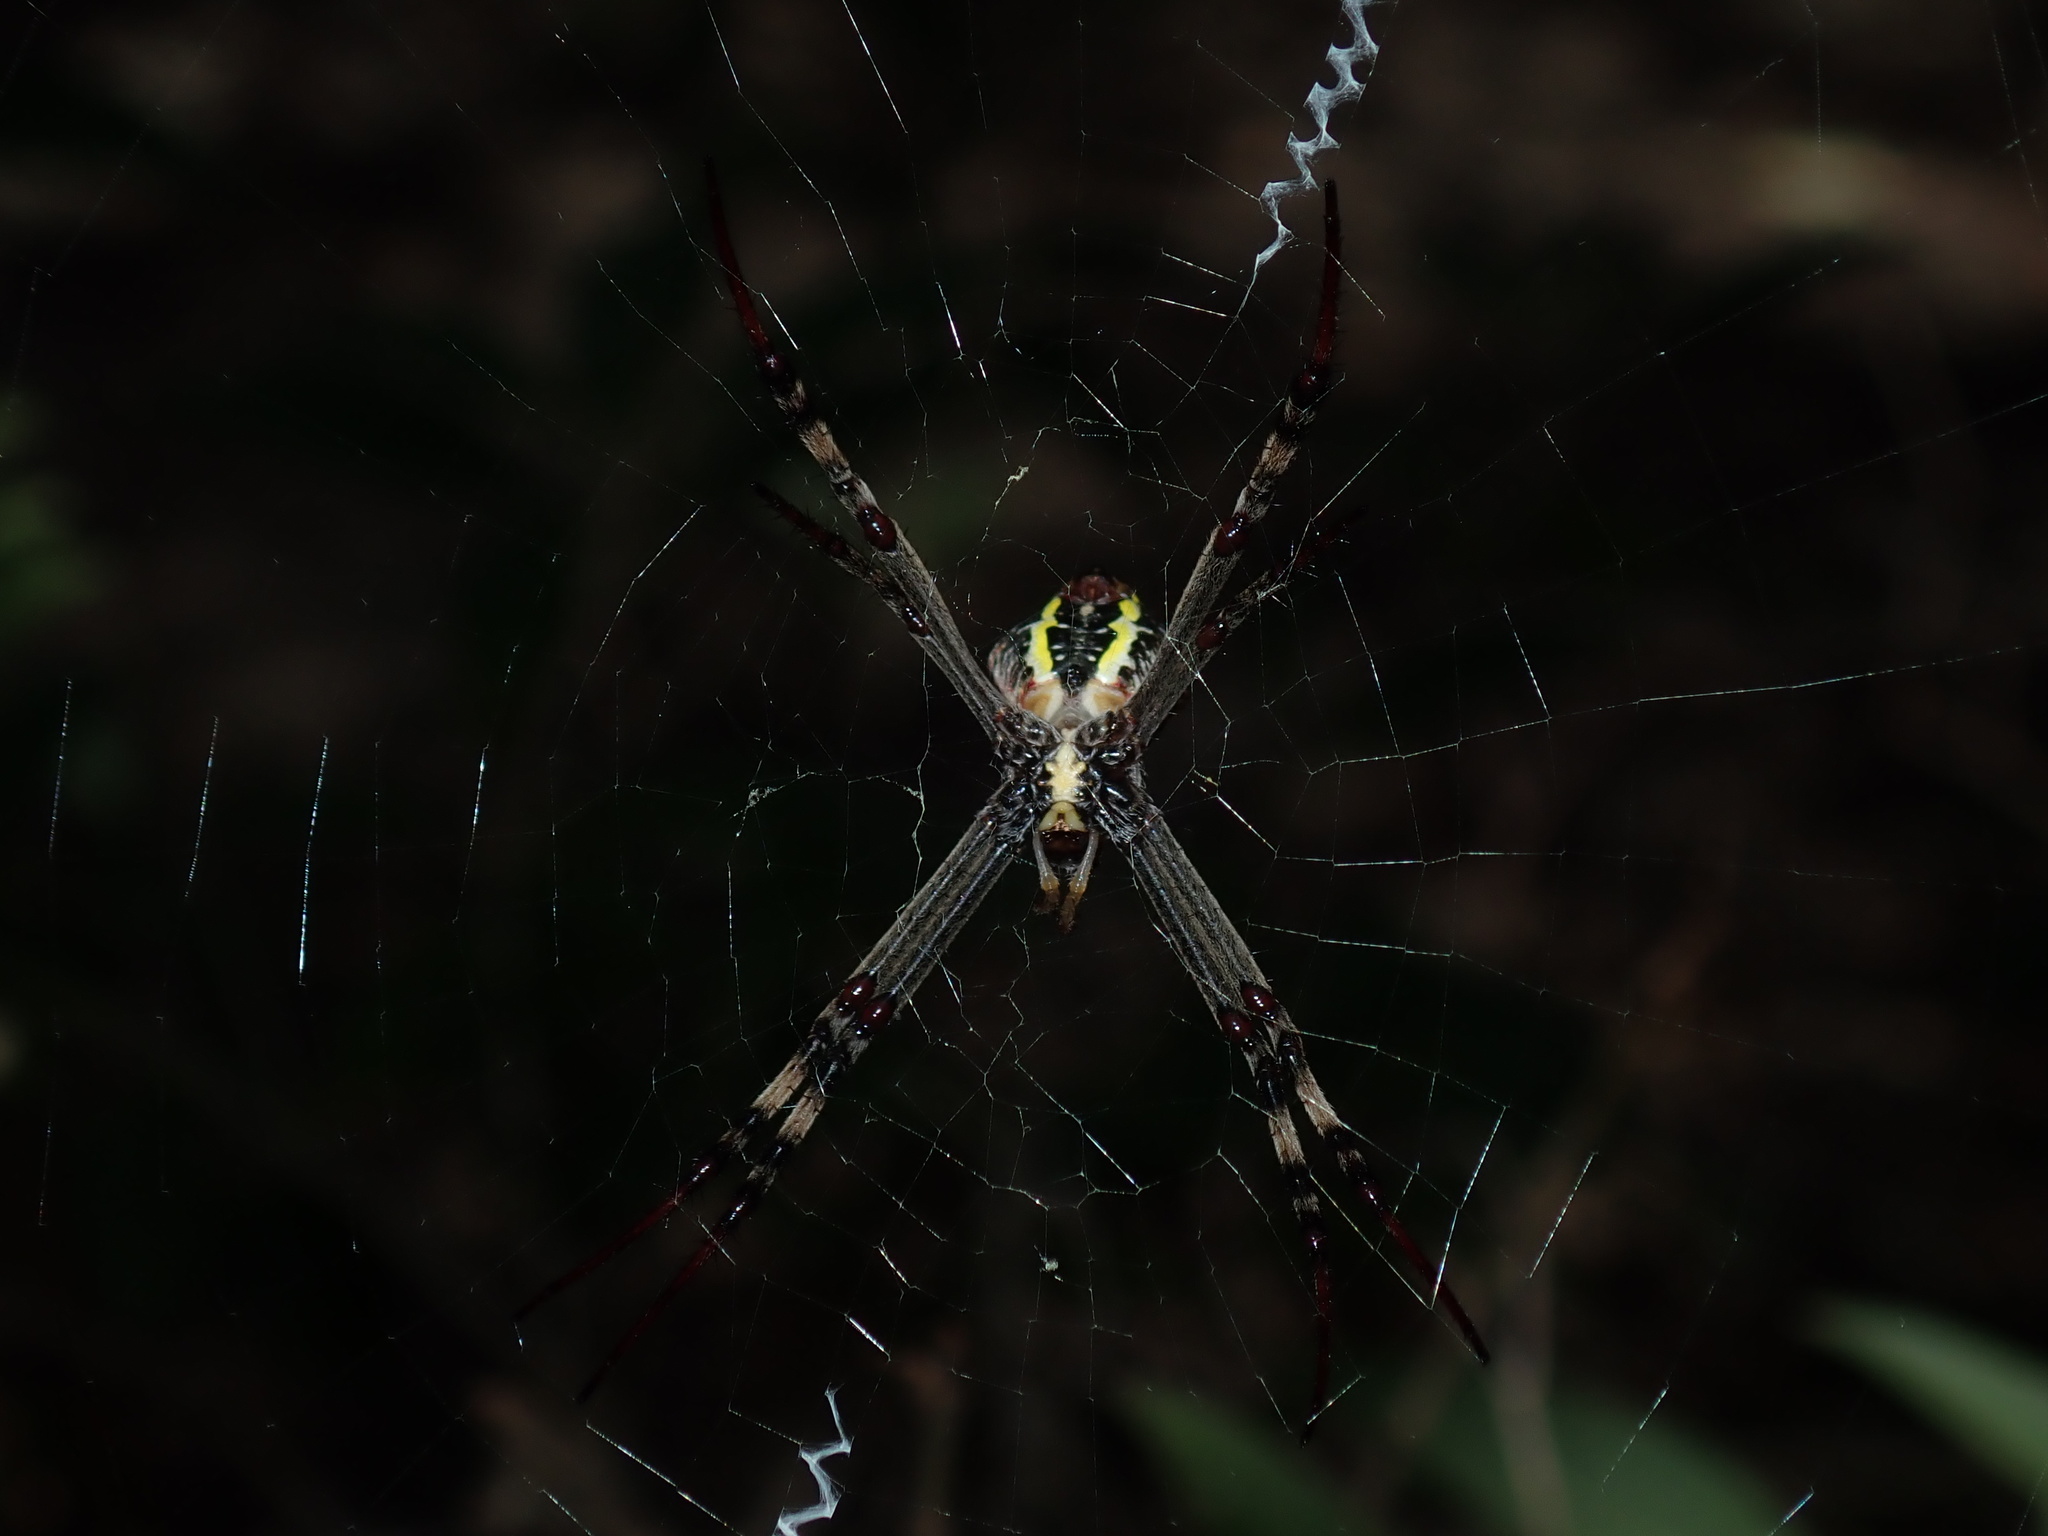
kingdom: Animalia
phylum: Arthropoda
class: Arachnida
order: Araneae
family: Araneidae
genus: Argiope
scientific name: Argiope keyserlingi
